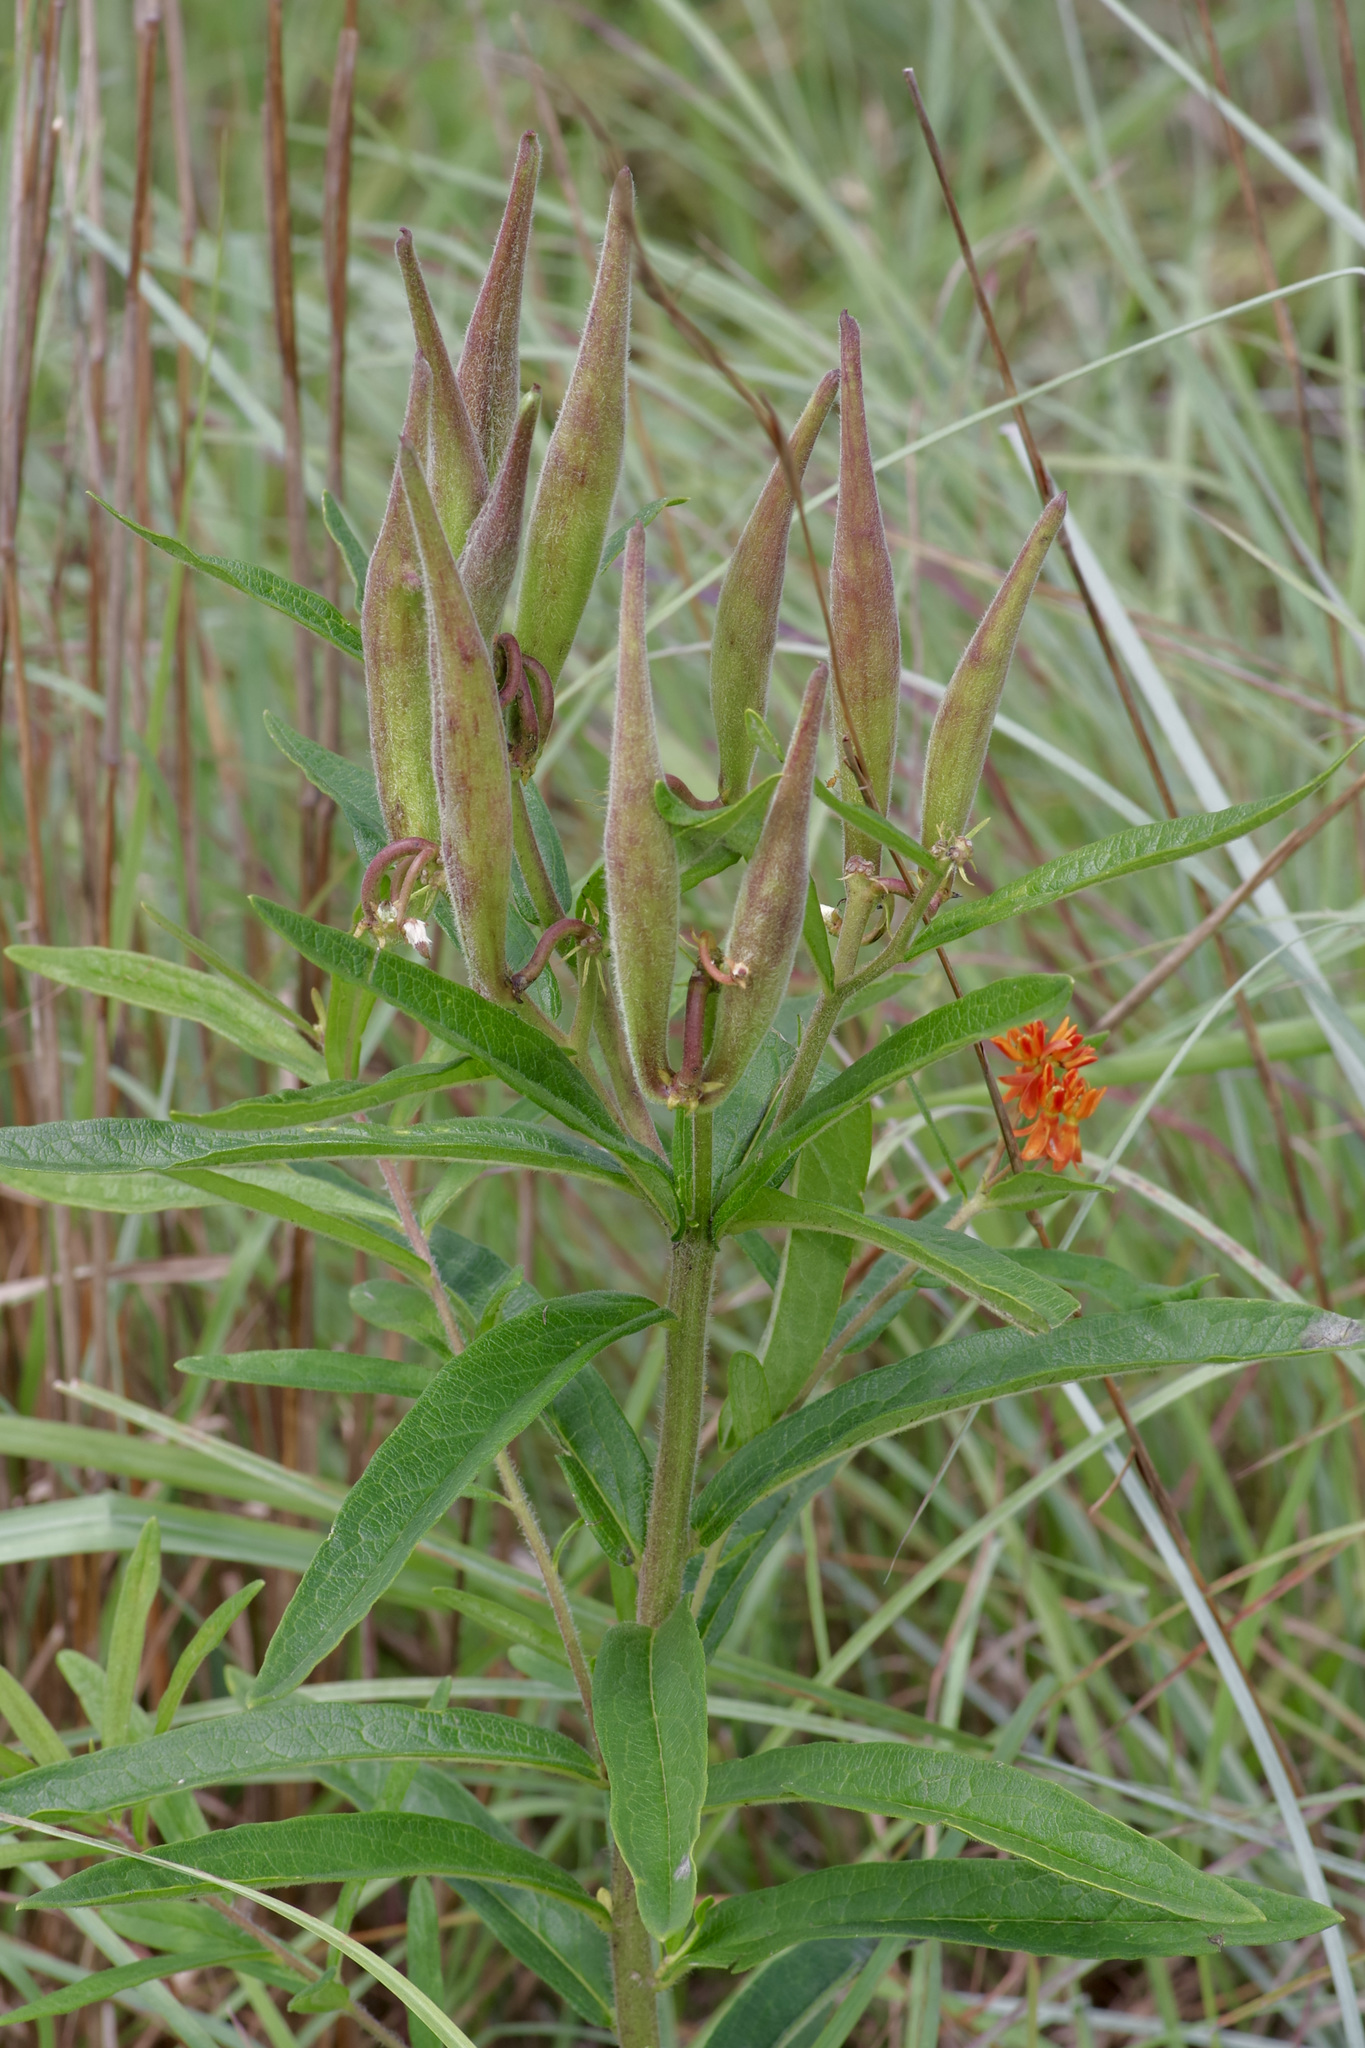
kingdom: Plantae
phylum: Tracheophyta
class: Magnoliopsida
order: Gentianales
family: Apocynaceae
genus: Asclepias
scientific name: Asclepias tuberosa
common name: Butterfly milkweed
